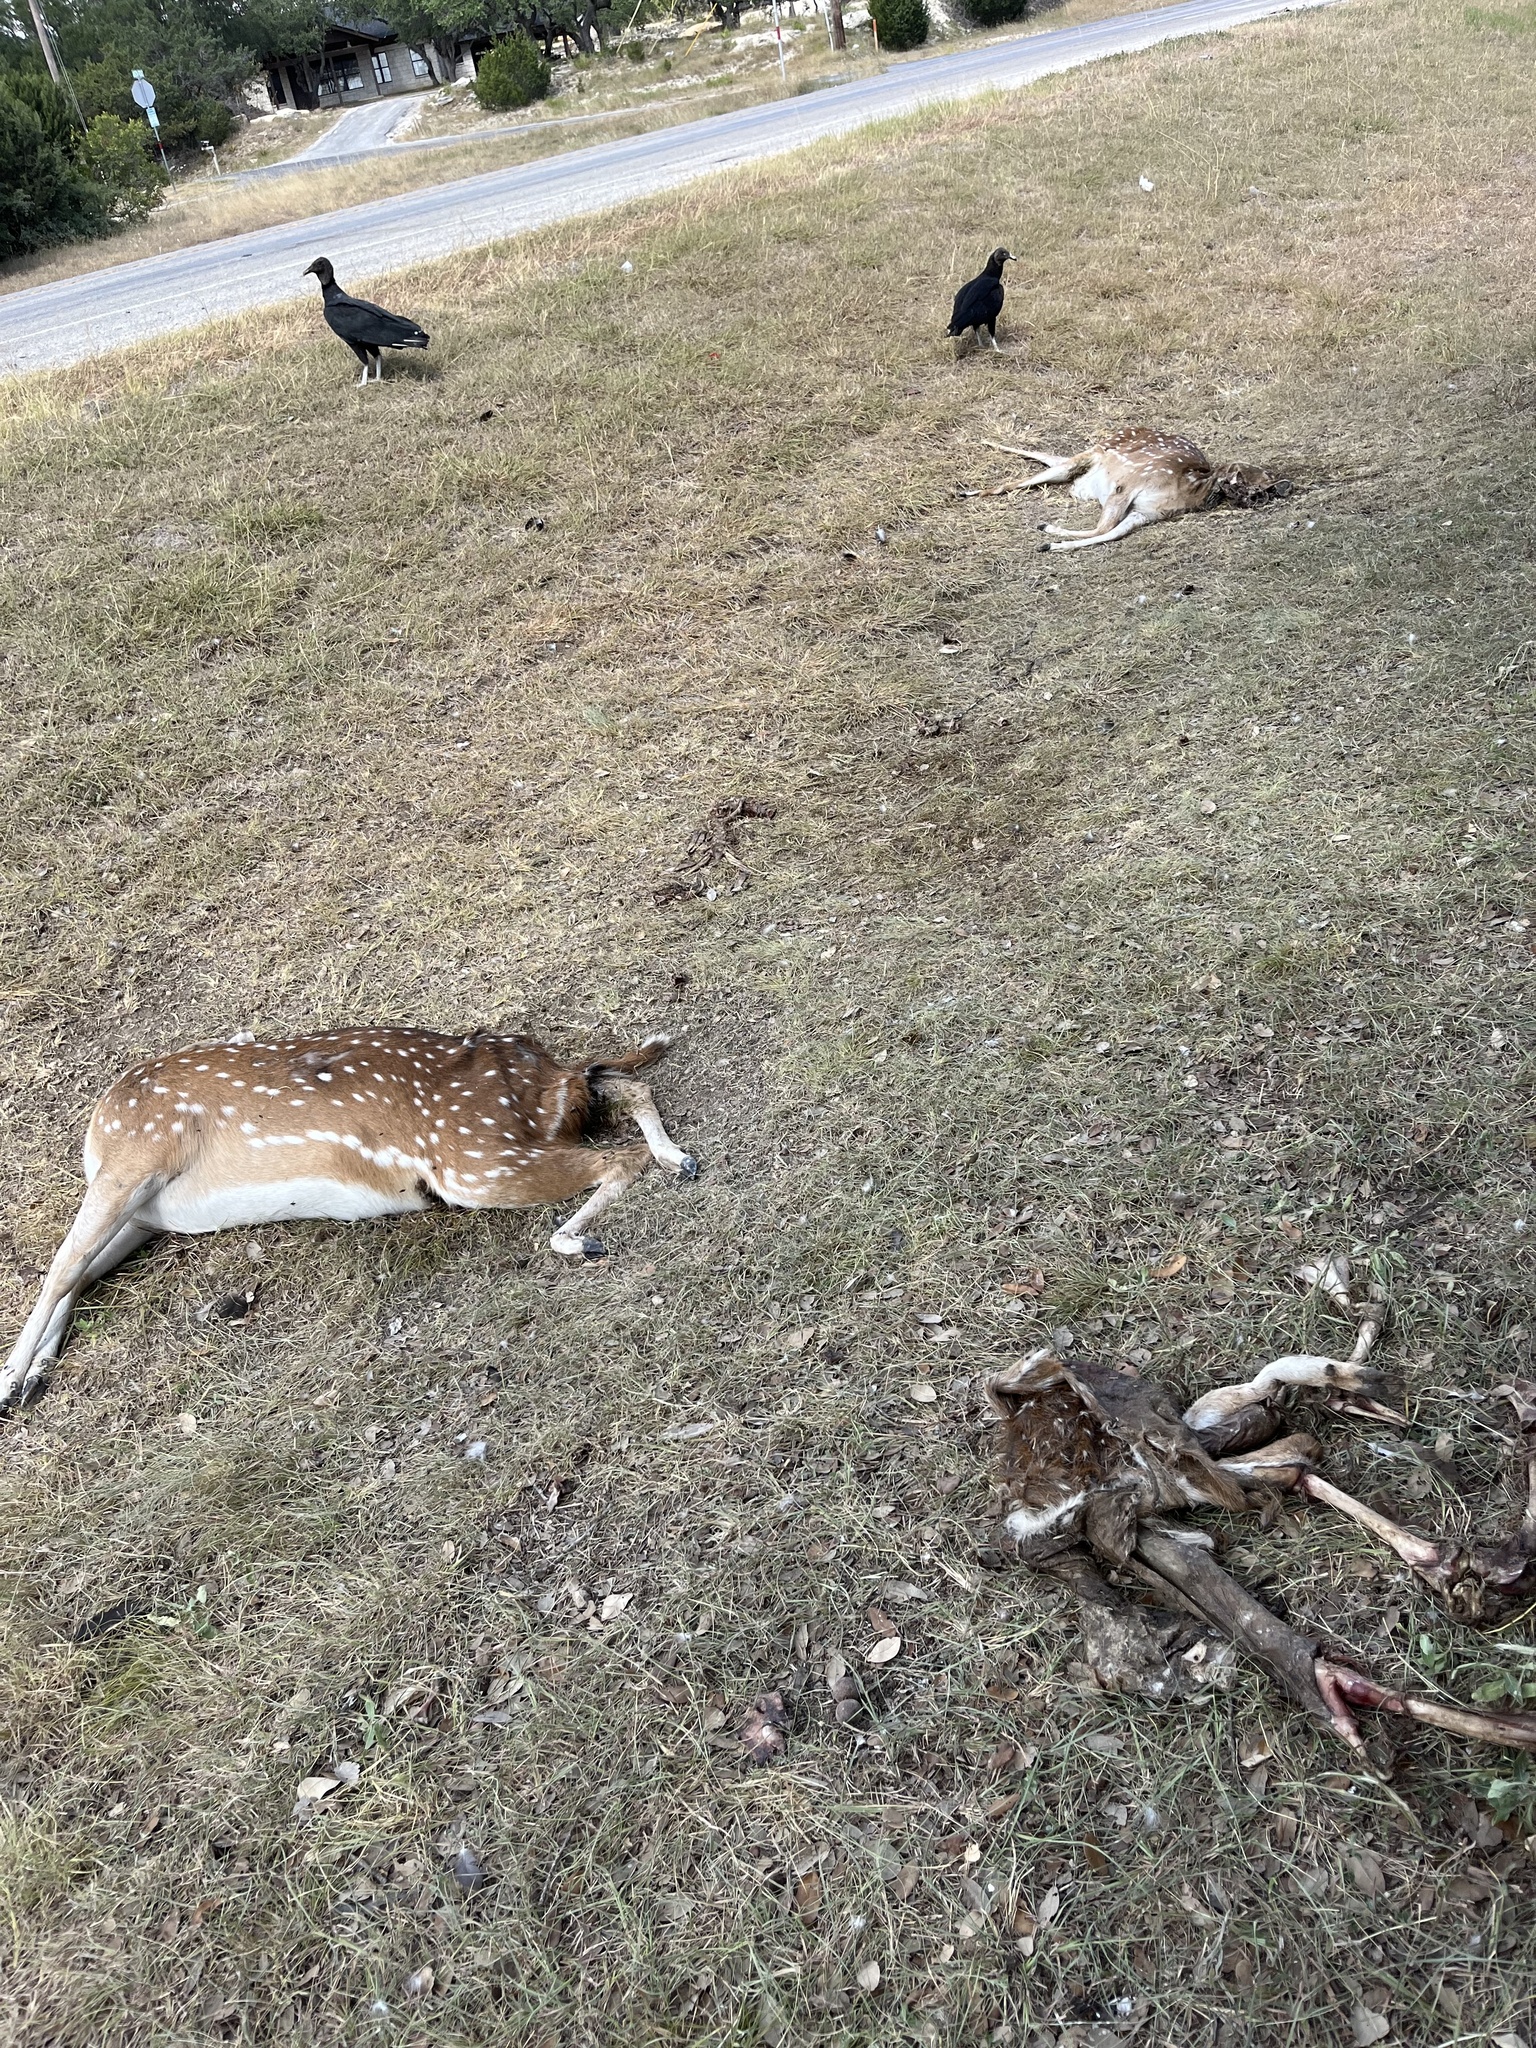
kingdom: Animalia
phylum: Chordata
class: Mammalia
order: Artiodactyla
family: Cervidae
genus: Axis
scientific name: Axis axis
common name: Chital
